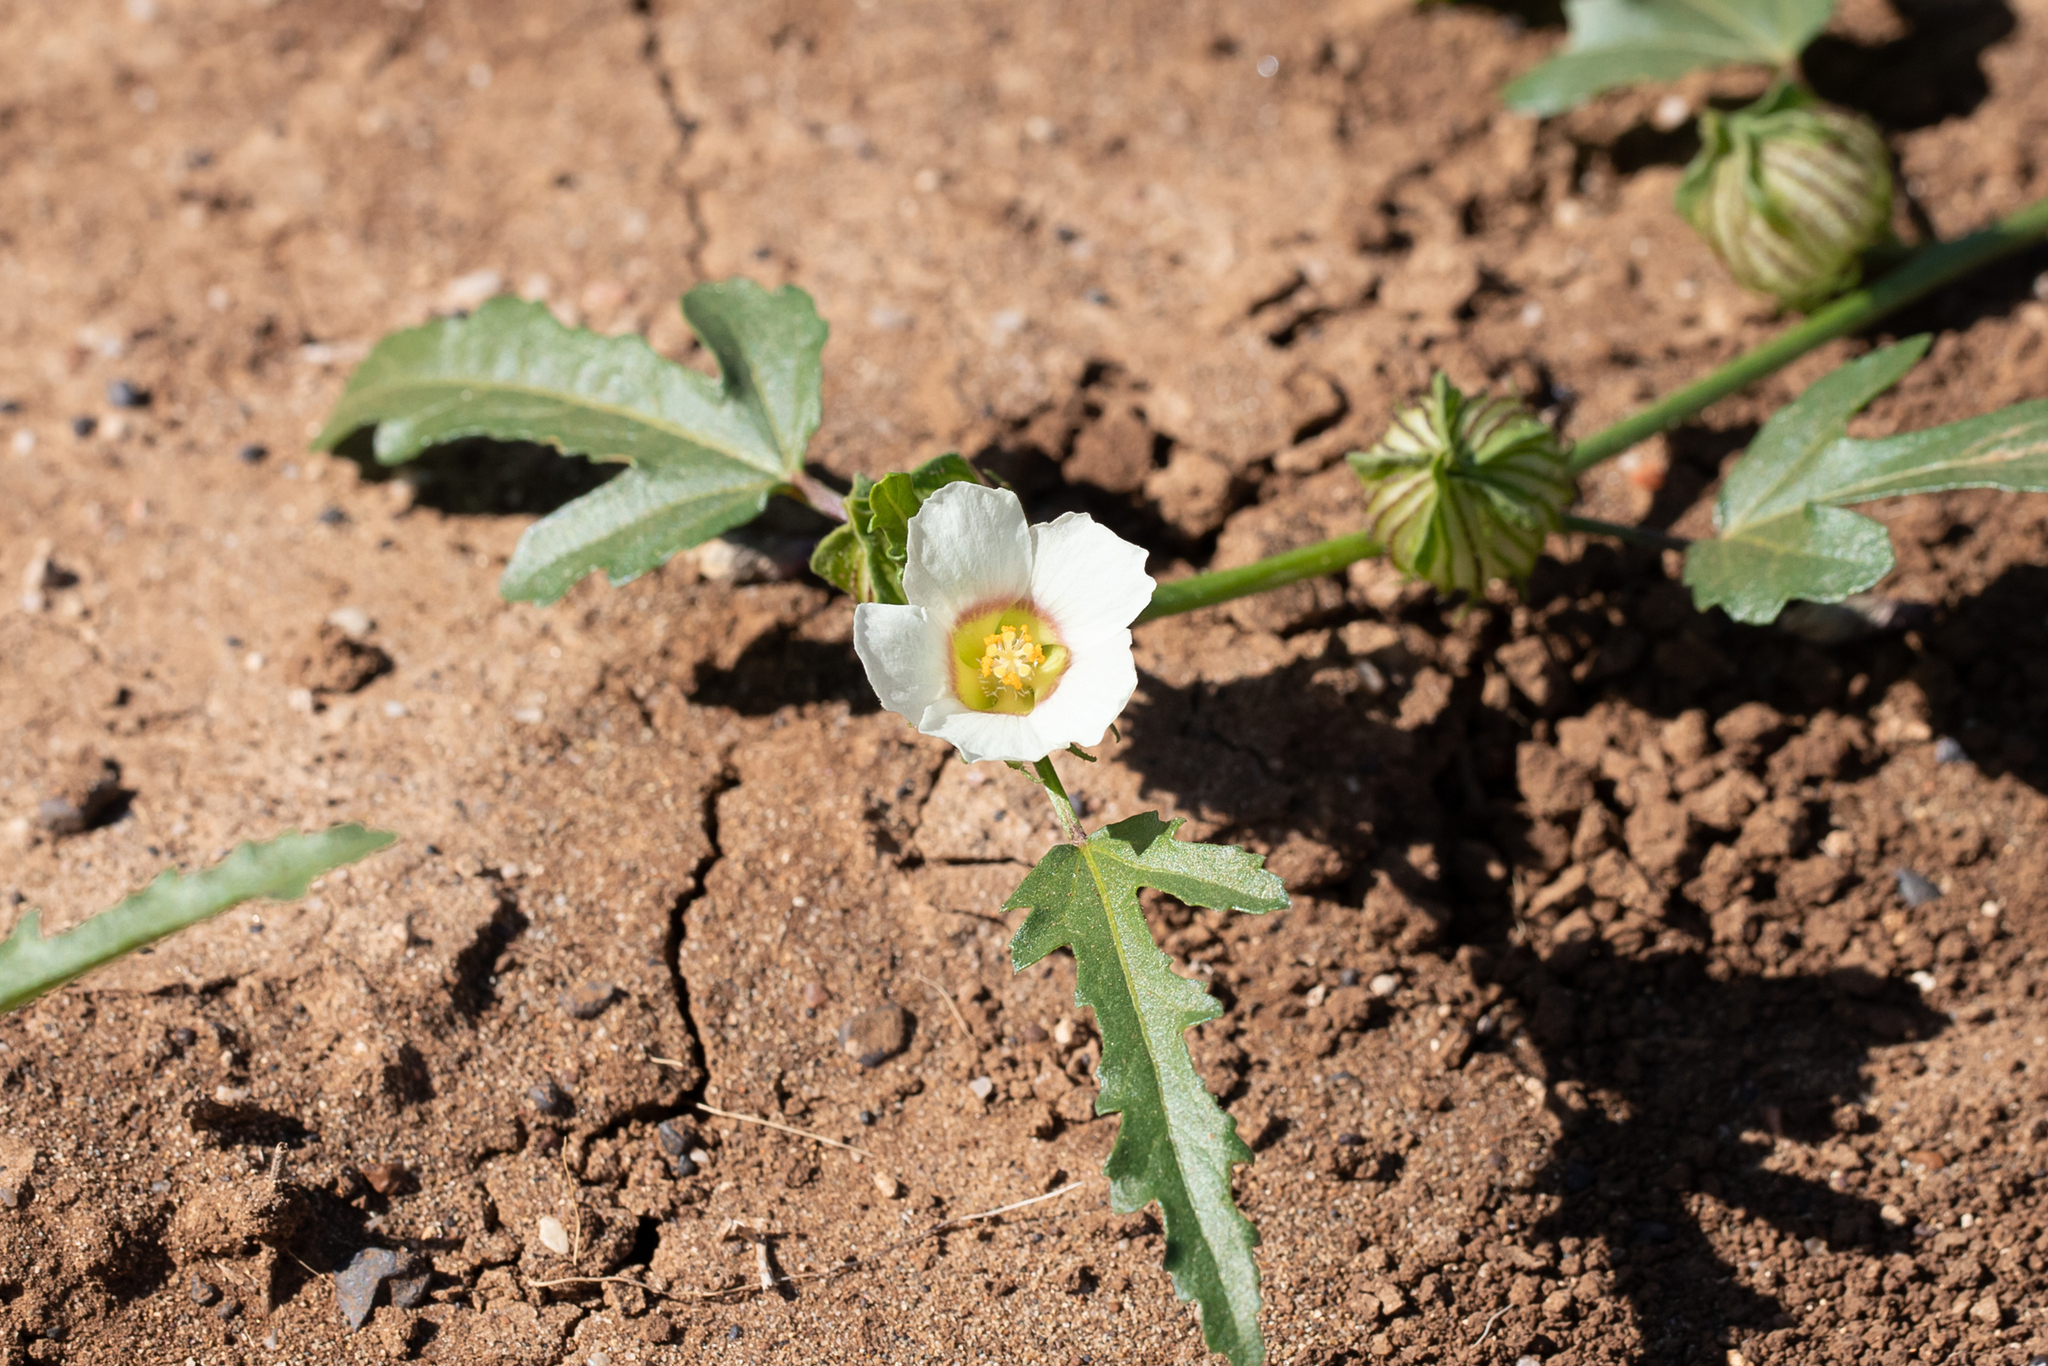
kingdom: Plantae
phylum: Tracheophyta
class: Magnoliopsida
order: Malvales
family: Malvaceae
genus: Hibiscus
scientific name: Hibiscus verdcourtii
